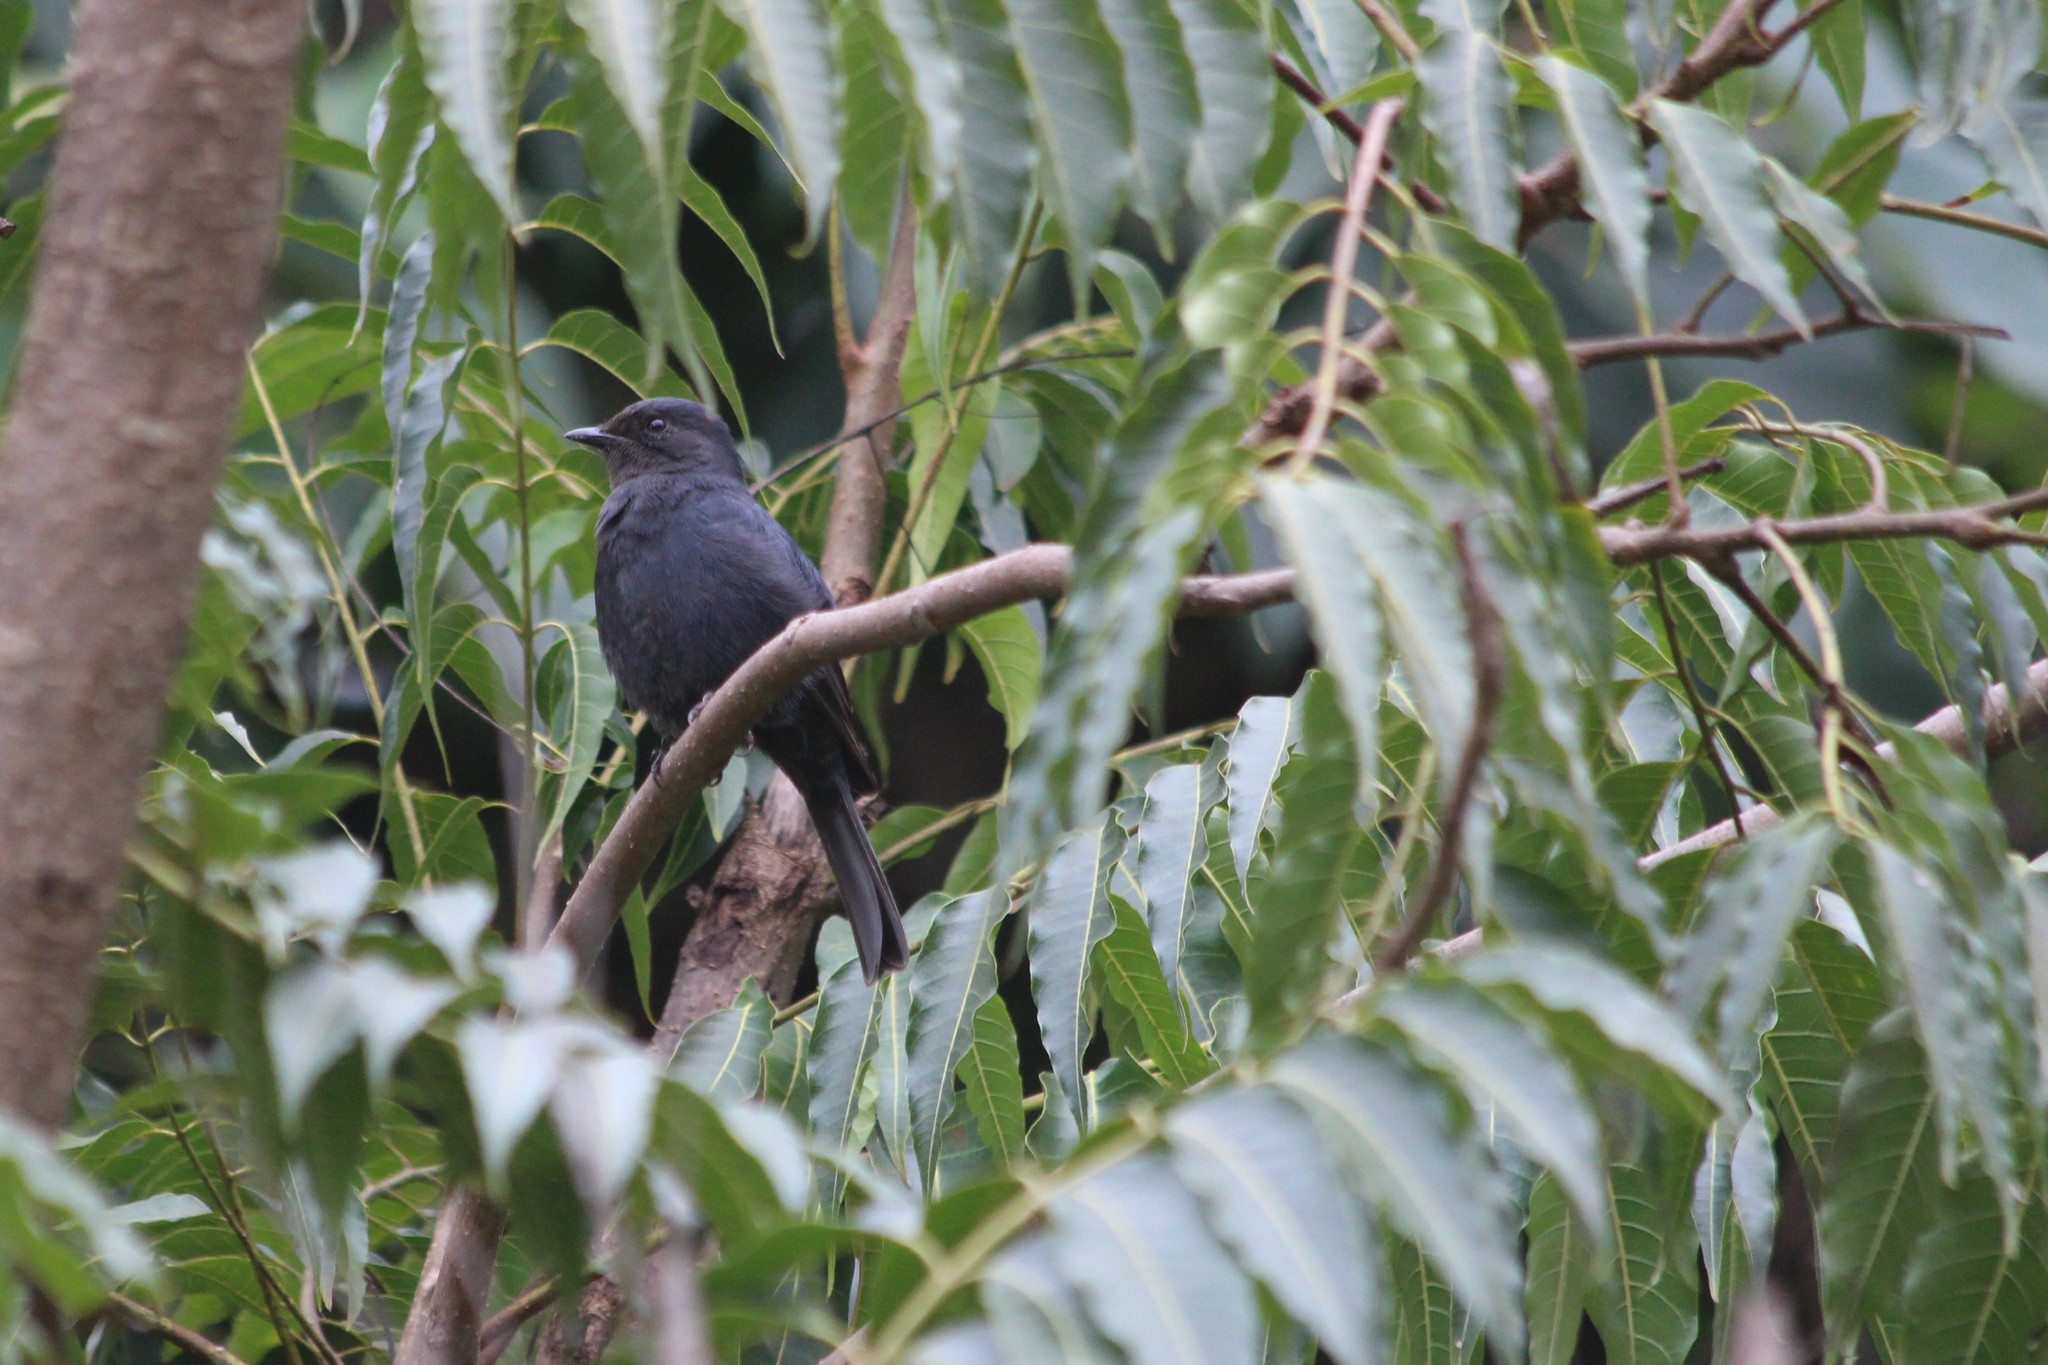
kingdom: Animalia
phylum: Chordata
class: Aves
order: Passeriformes
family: Muscicapidae
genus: Melaenornis
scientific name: Melaenornis pammelaina
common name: Southern black flycatcher
